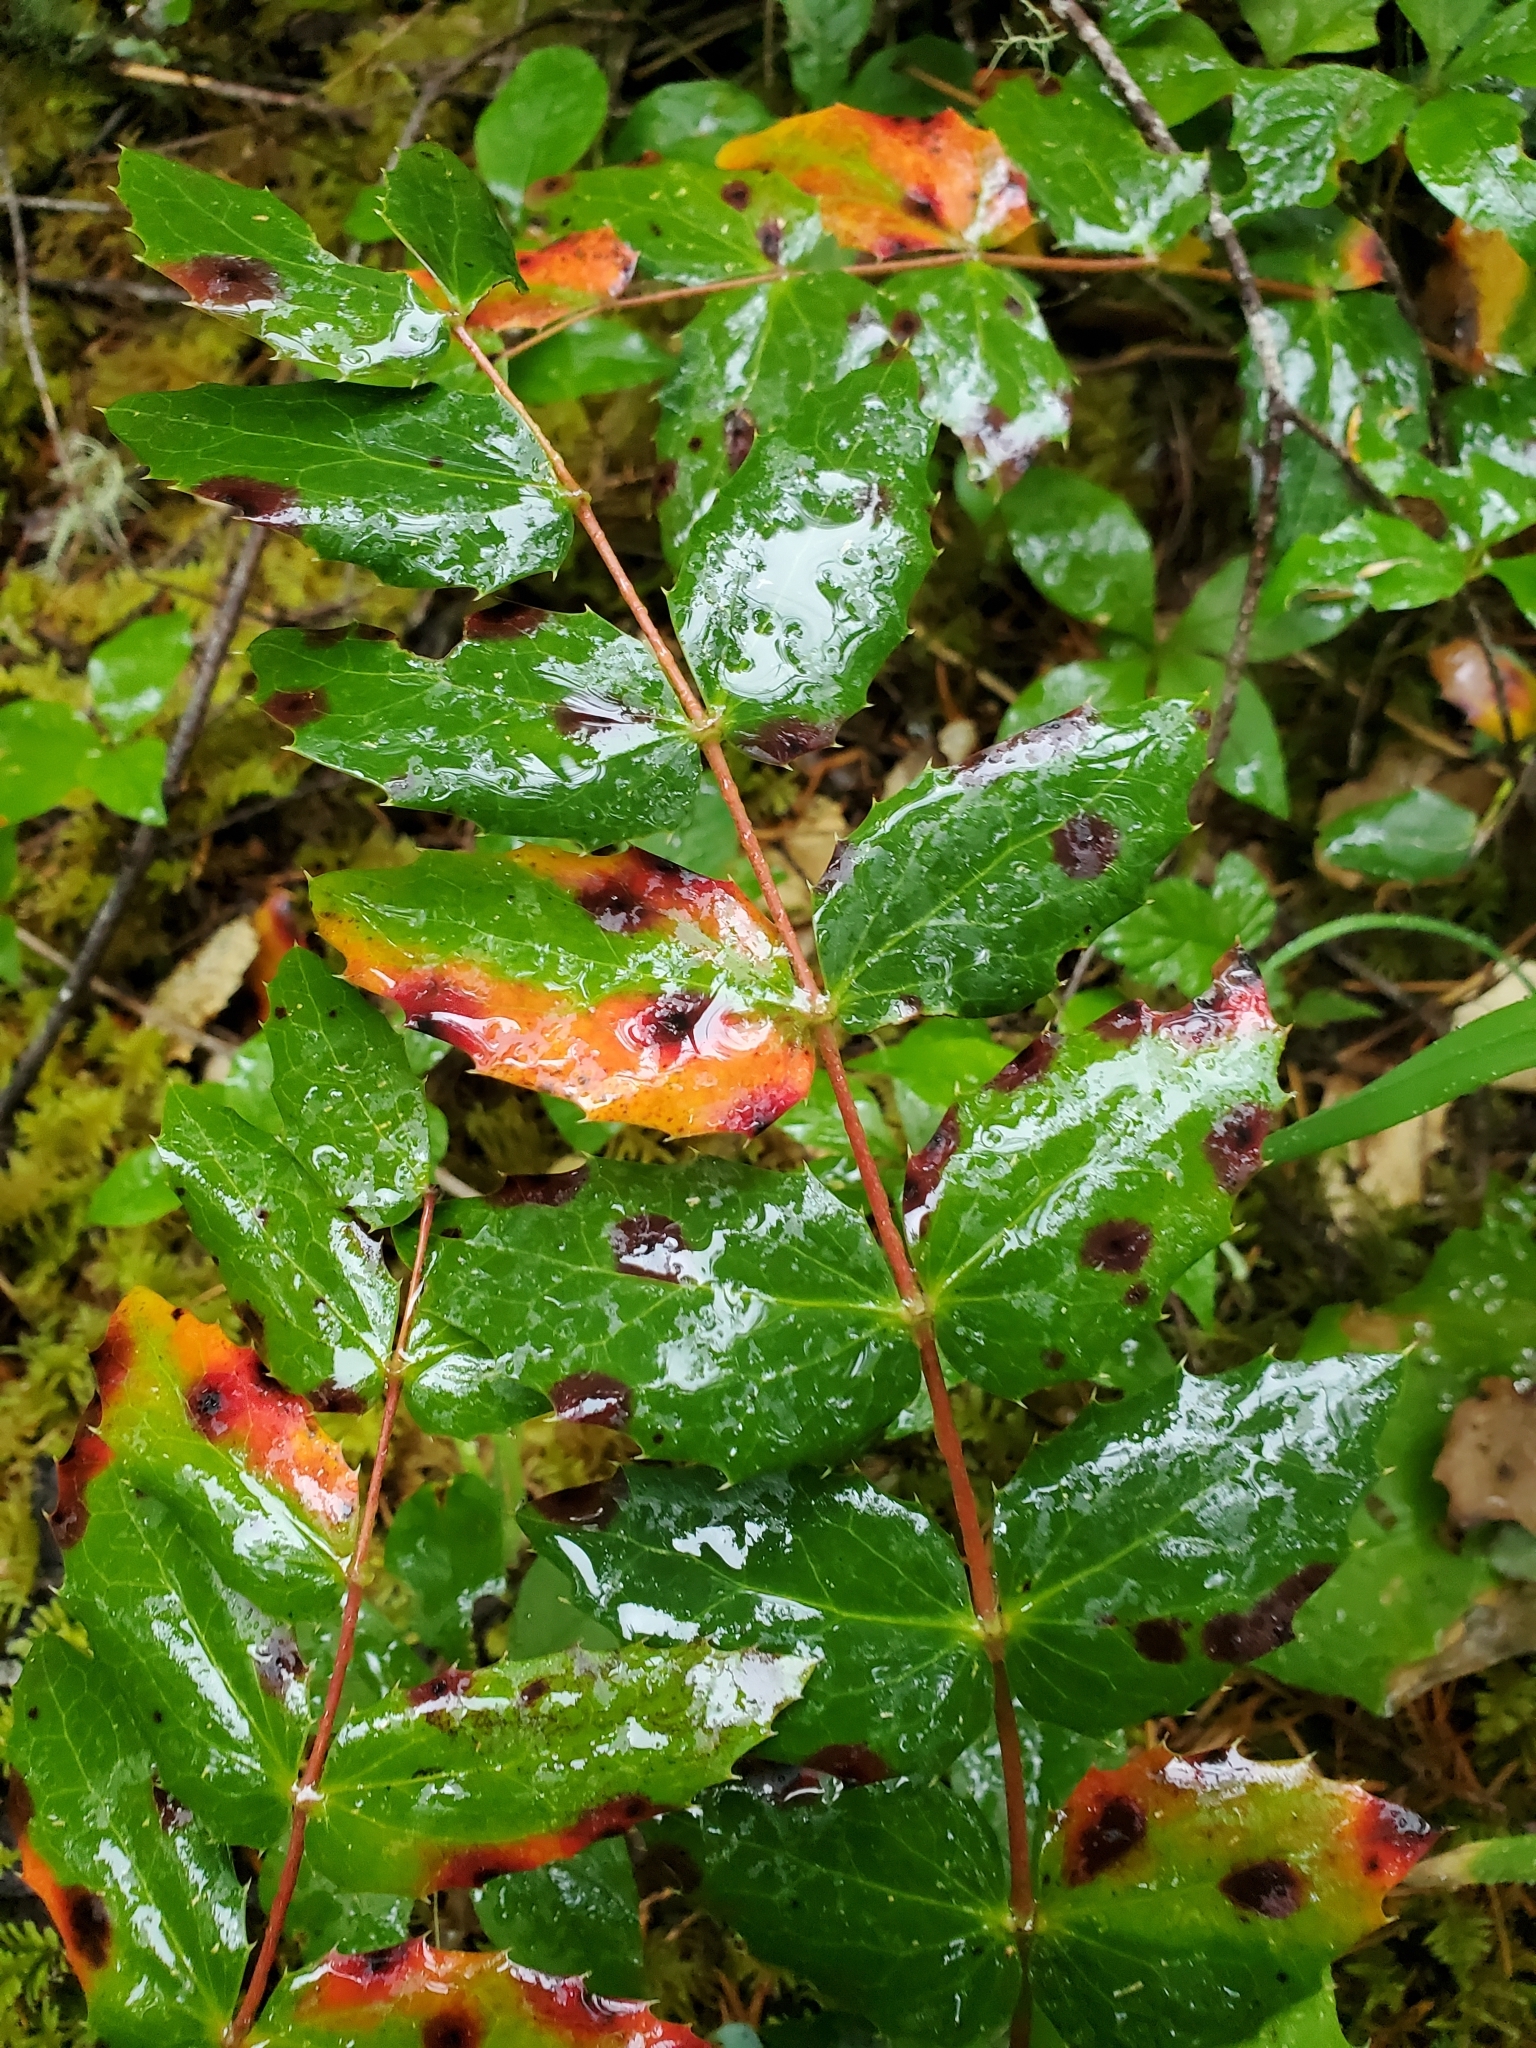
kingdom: Plantae
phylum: Tracheophyta
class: Magnoliopsida
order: Ranunculales
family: Berberidaceae
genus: Mahonia
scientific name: Mahonia nervosa
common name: Cascade oregon-grape
